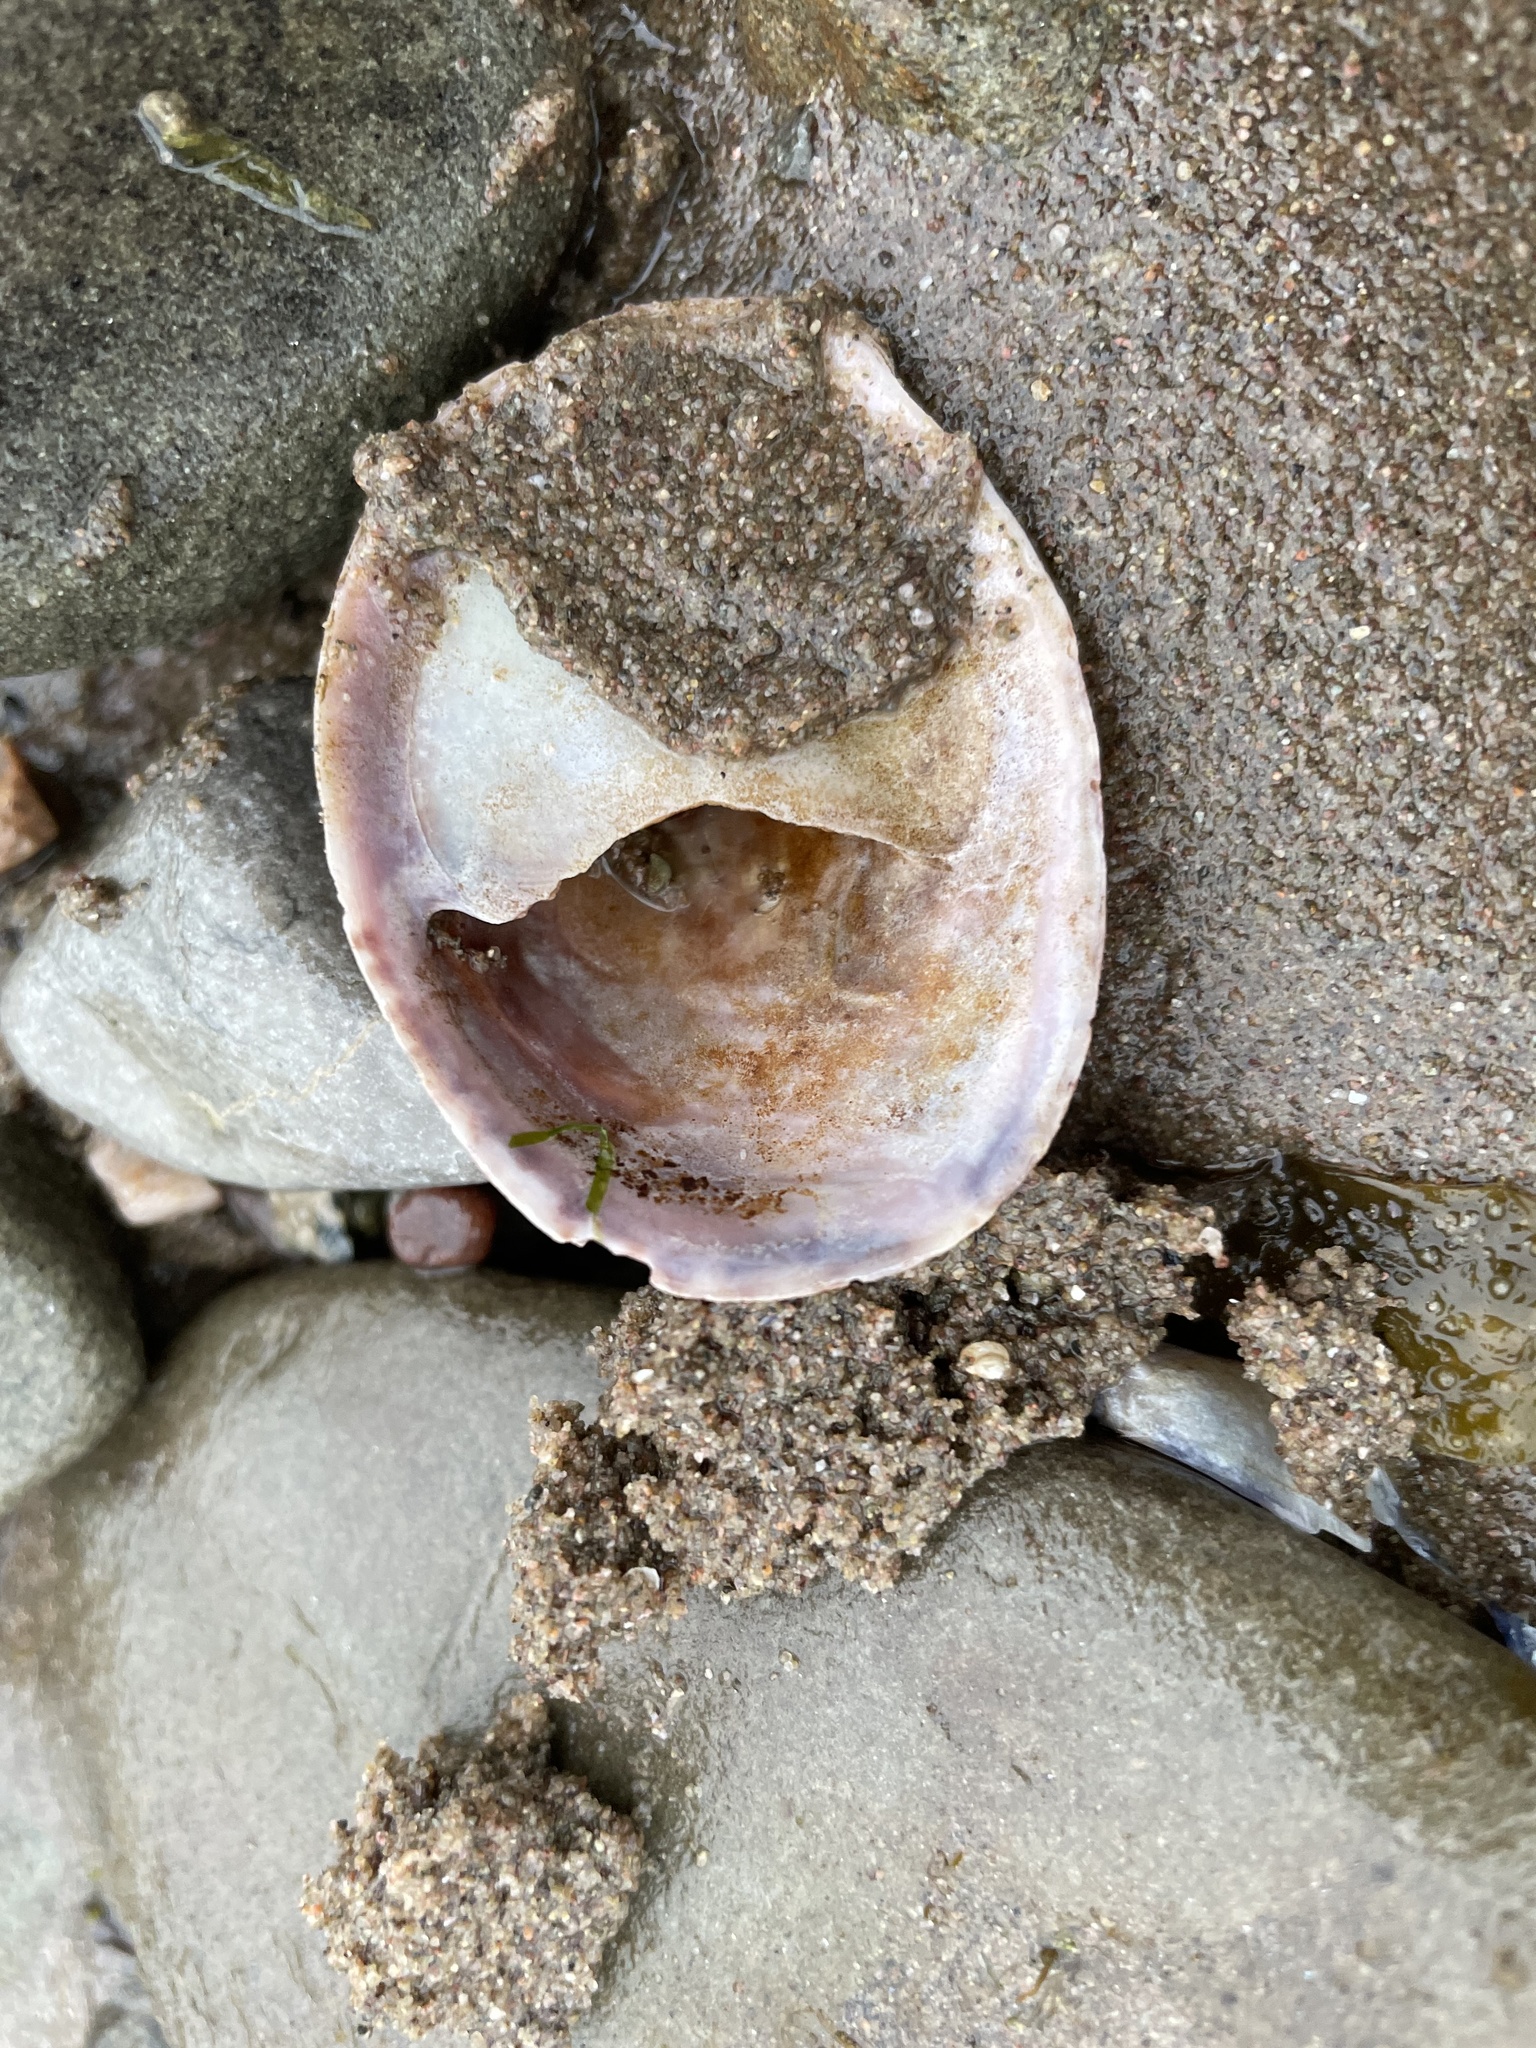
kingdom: Animalia
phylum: Mollusca
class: Gastropoda
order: Littorinimorpha
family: Calyptraeidae
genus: Crepidula
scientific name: Crepidula fornicata
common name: Slipper limpet
